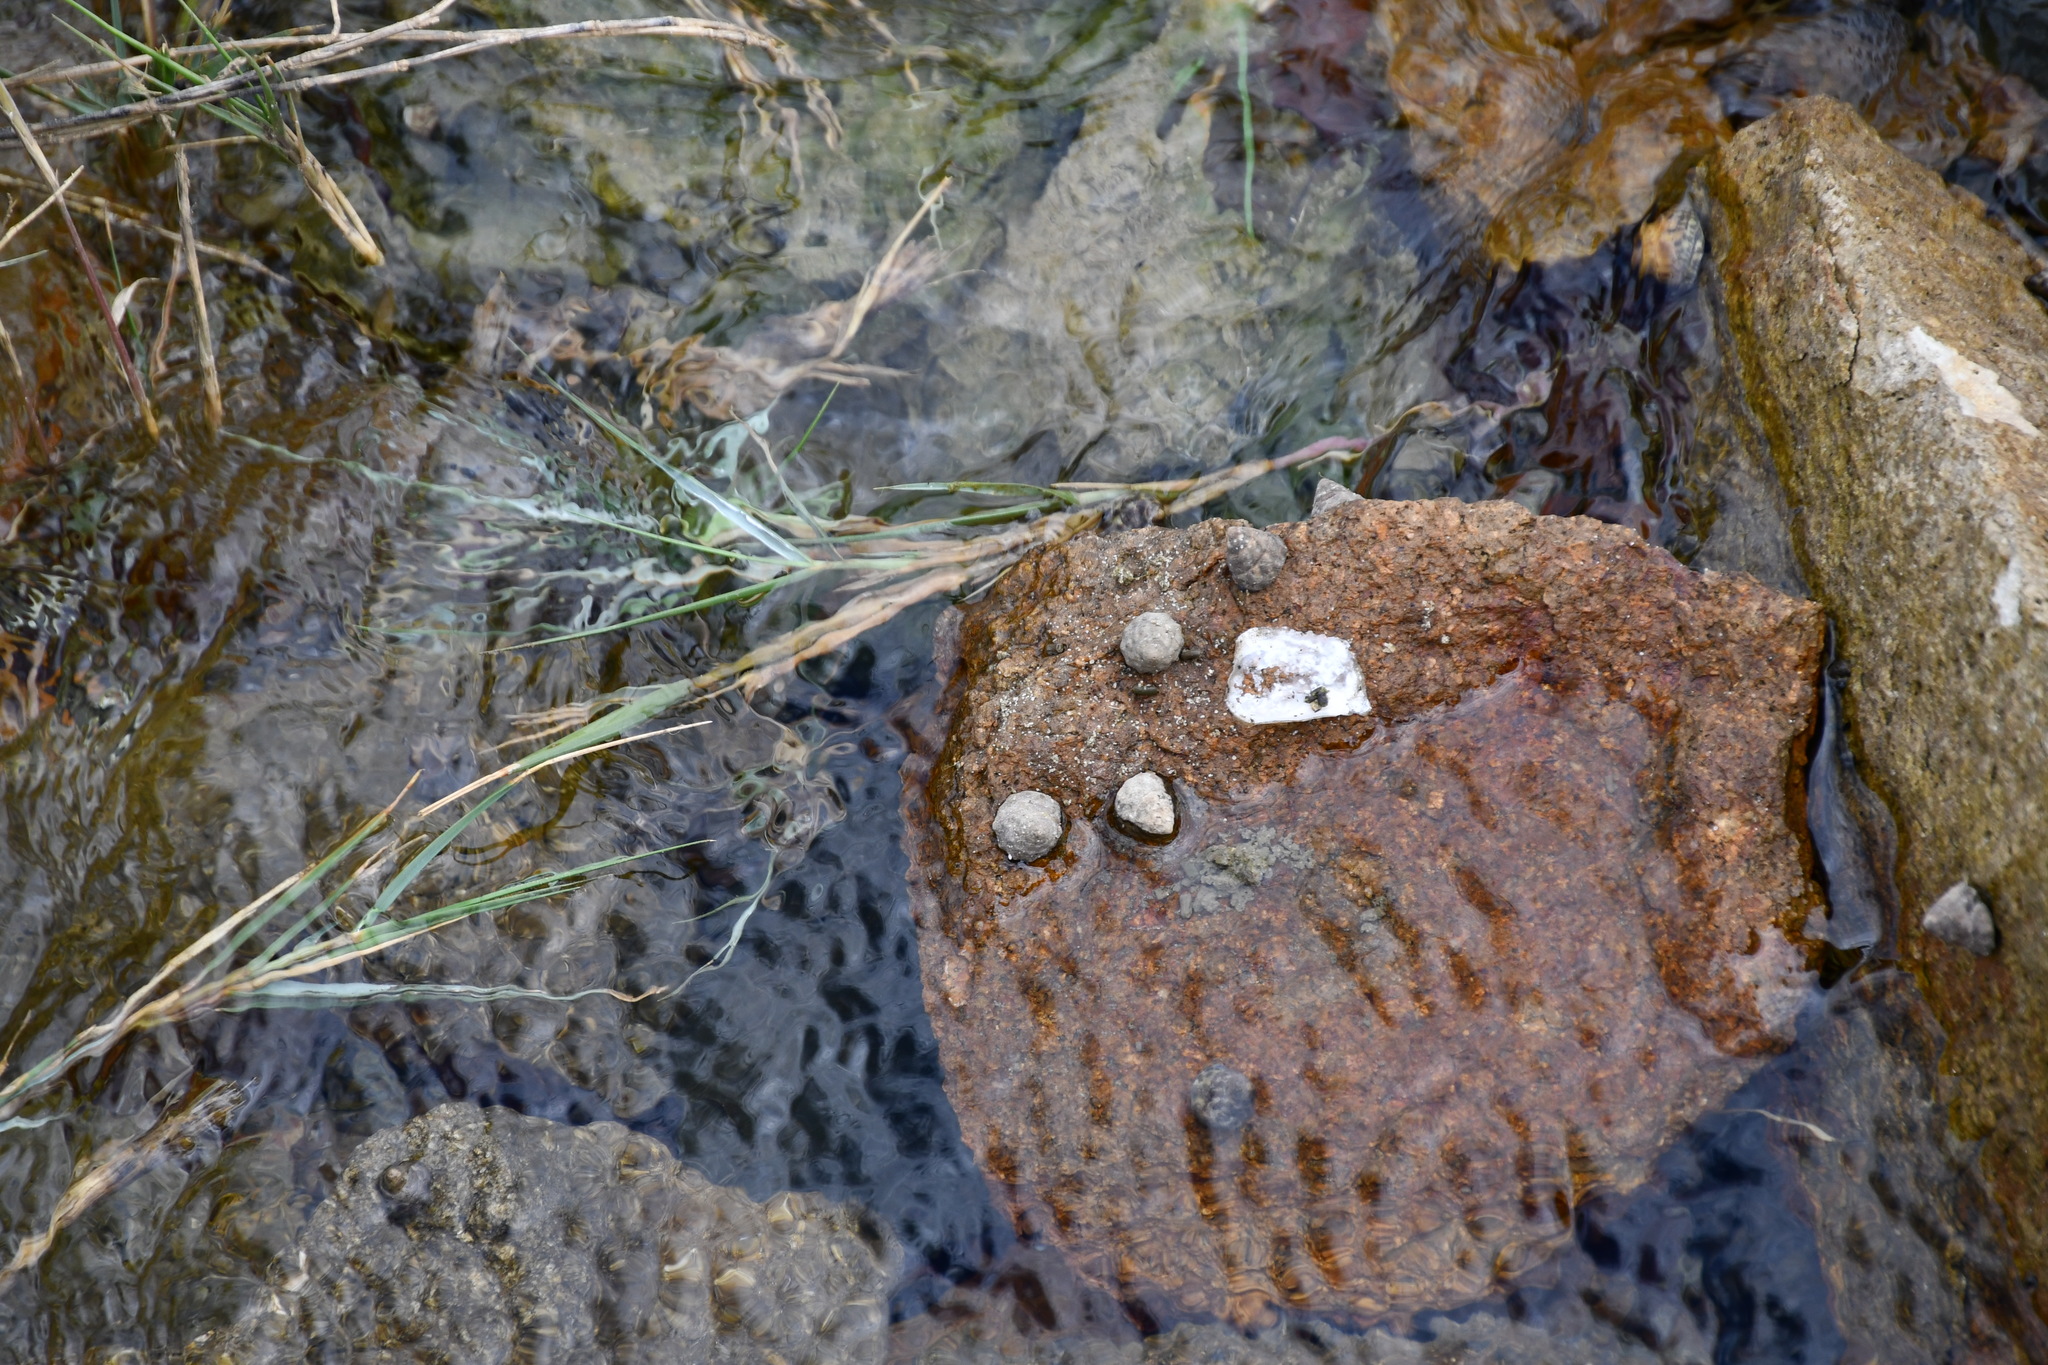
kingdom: Animalia
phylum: Mollusca
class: Gastropoda
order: Littorinimorpha
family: Littorinidae
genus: Bembicium
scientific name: Bembicium auratum
